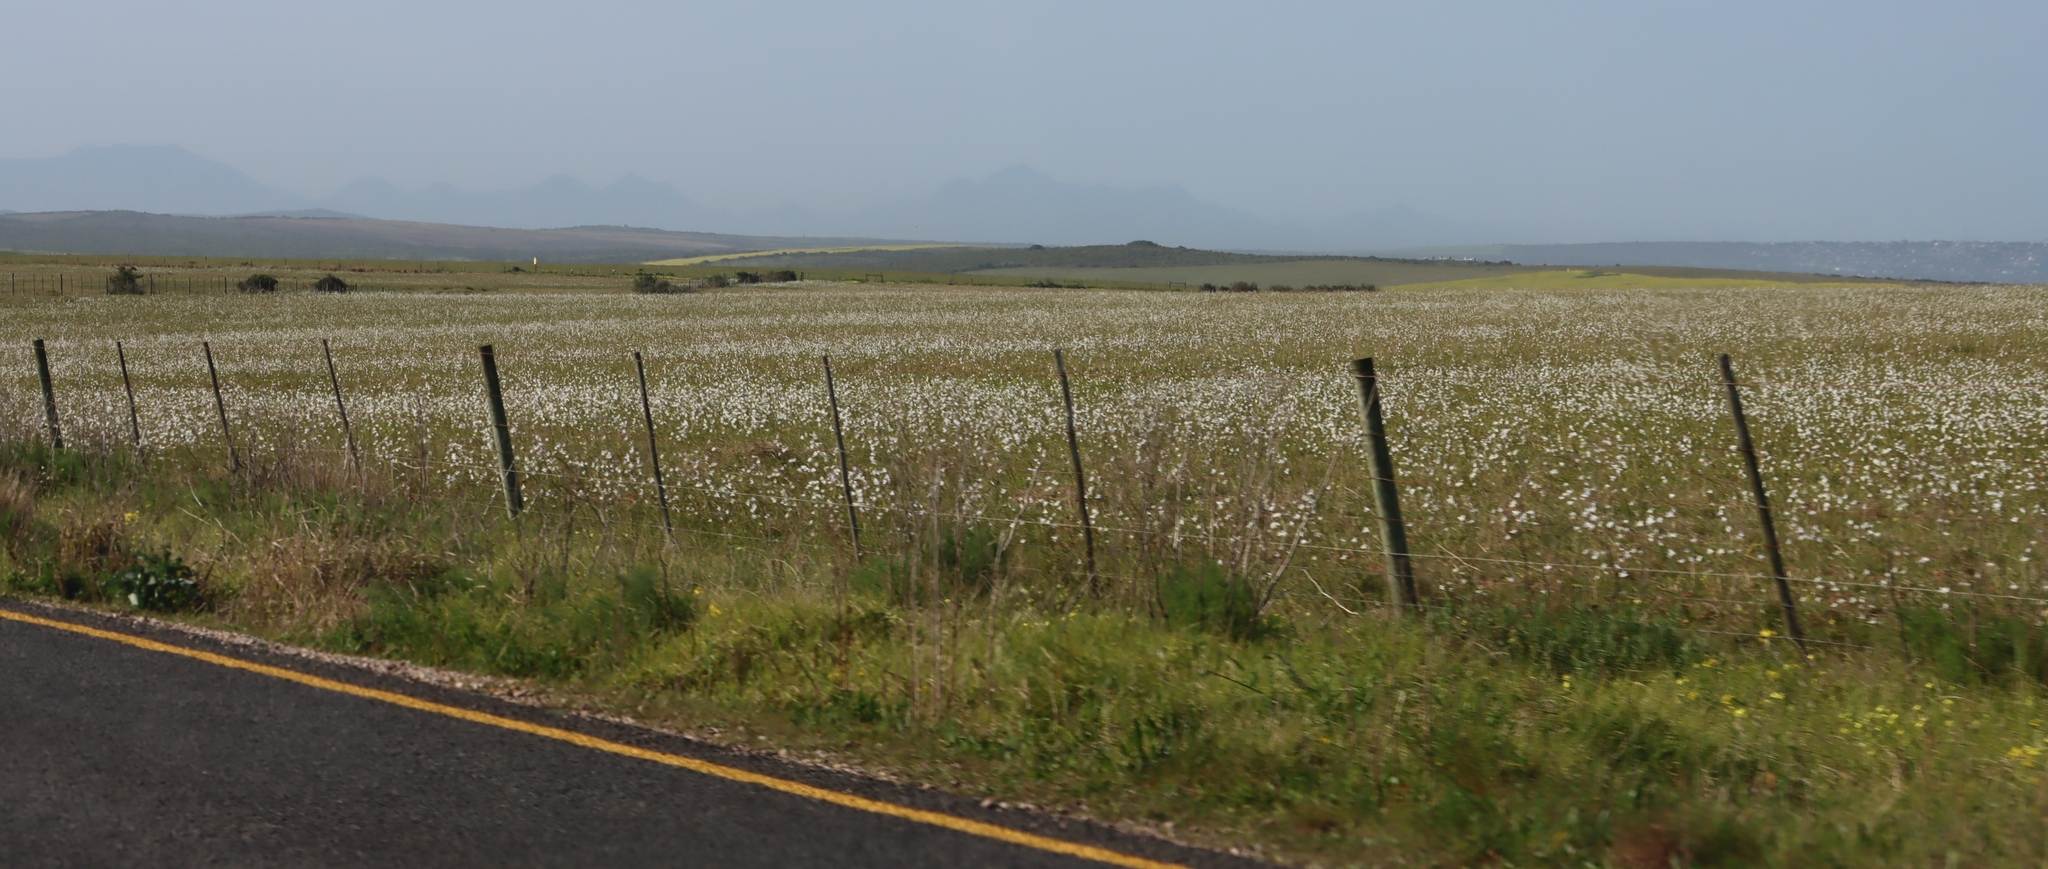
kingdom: Plantae
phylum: Tracheophyta
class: Liliopsida
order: Asparagales
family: Iridaceae
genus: Moraea
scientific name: Moraea polyanthos
